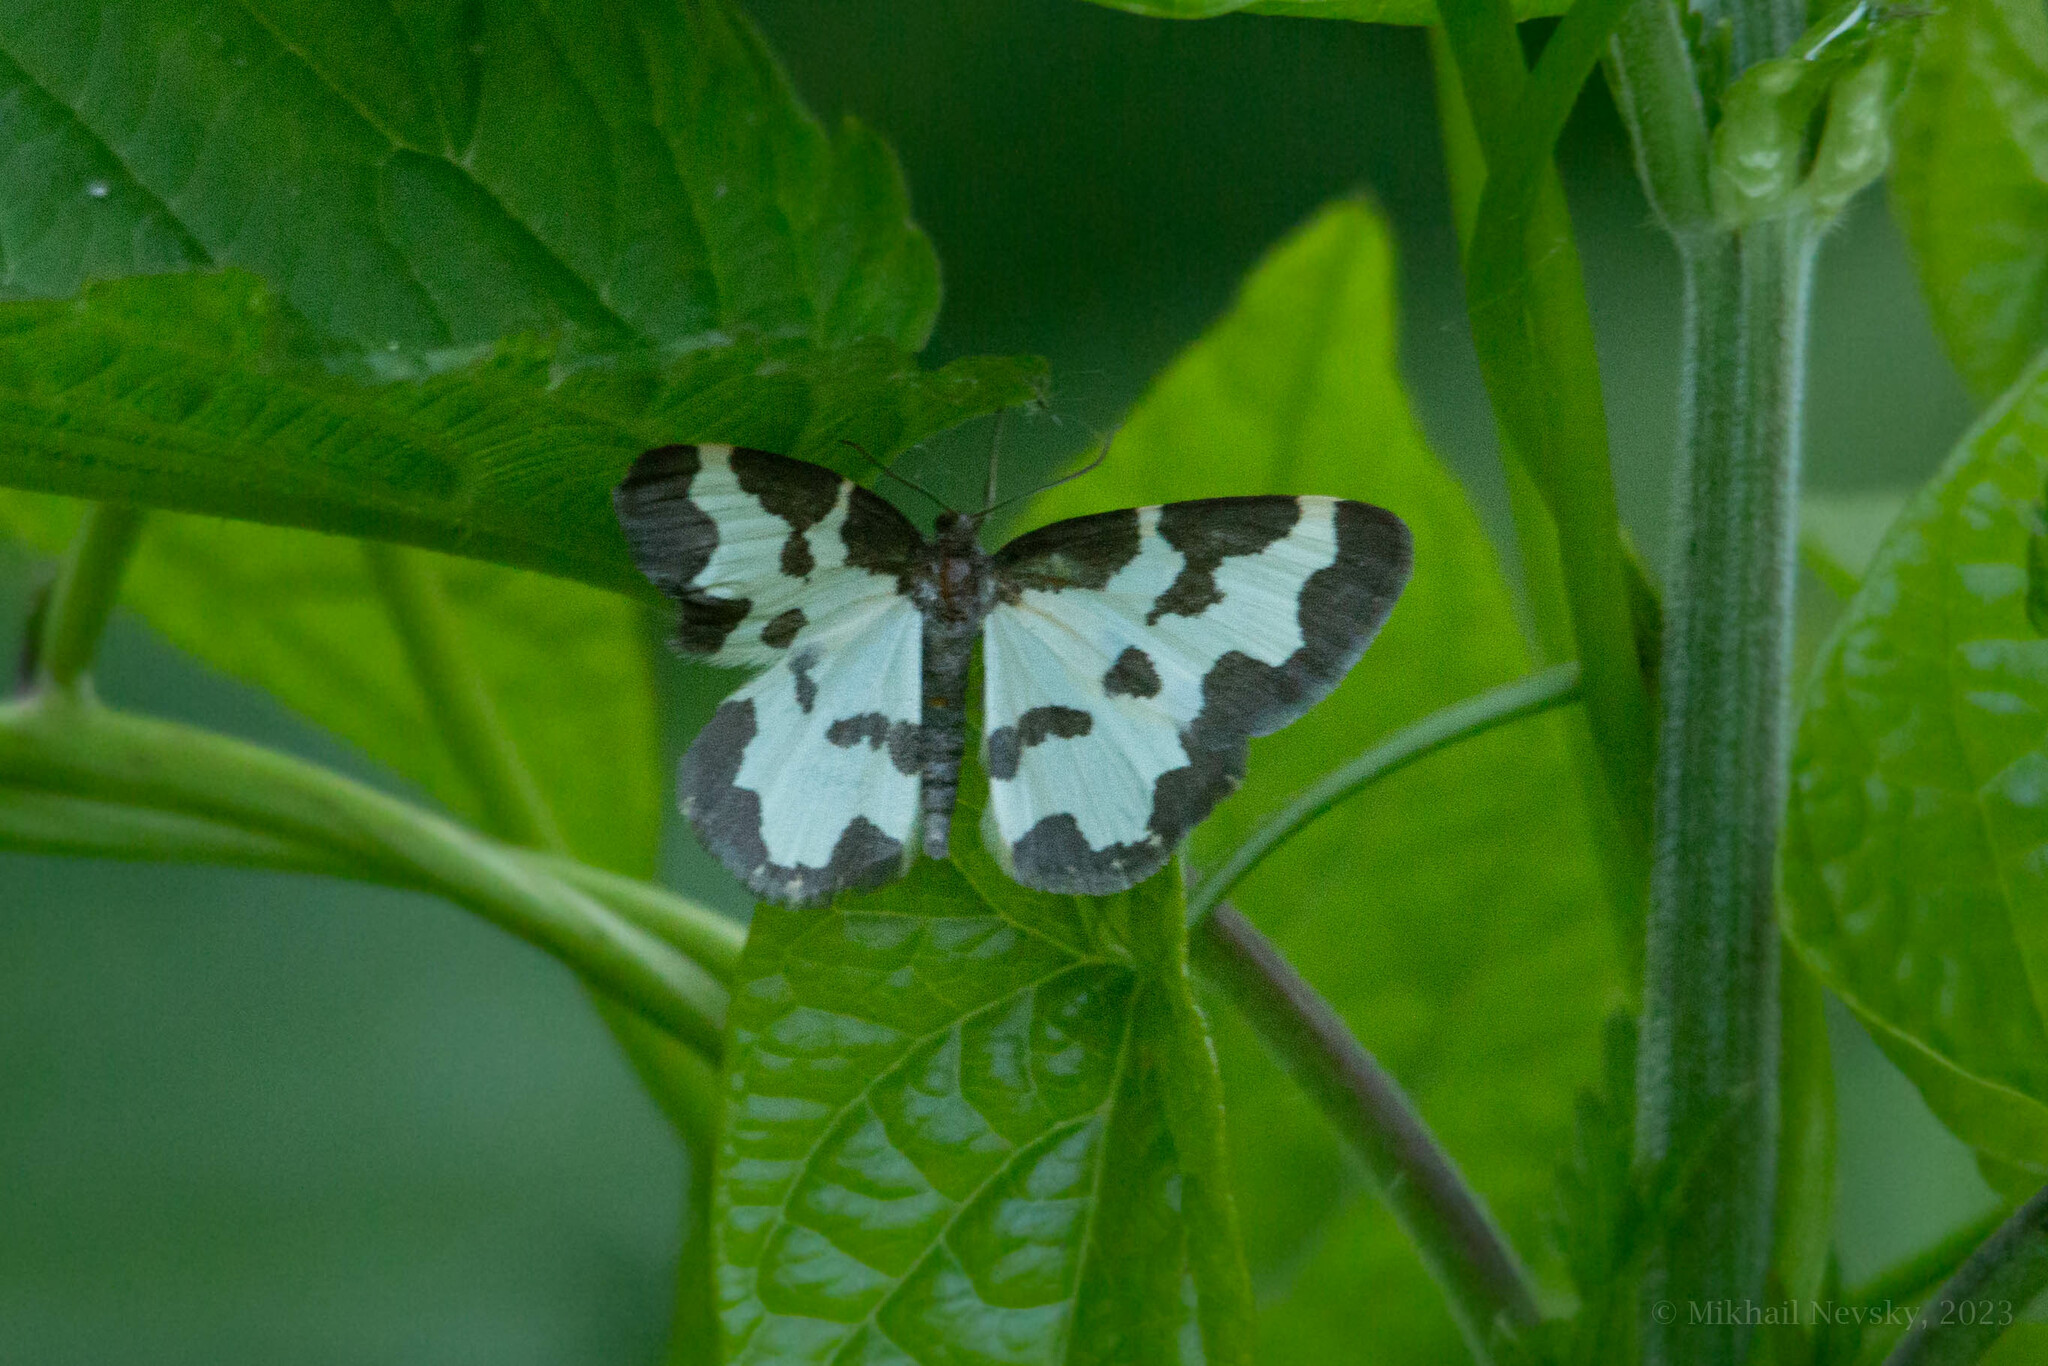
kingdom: Animalia
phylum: Arthropoda
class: Insecta
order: Lepidoptera
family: Geometridae
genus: Lomaspilis
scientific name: Lomaspilis marginata
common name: Clouded border
